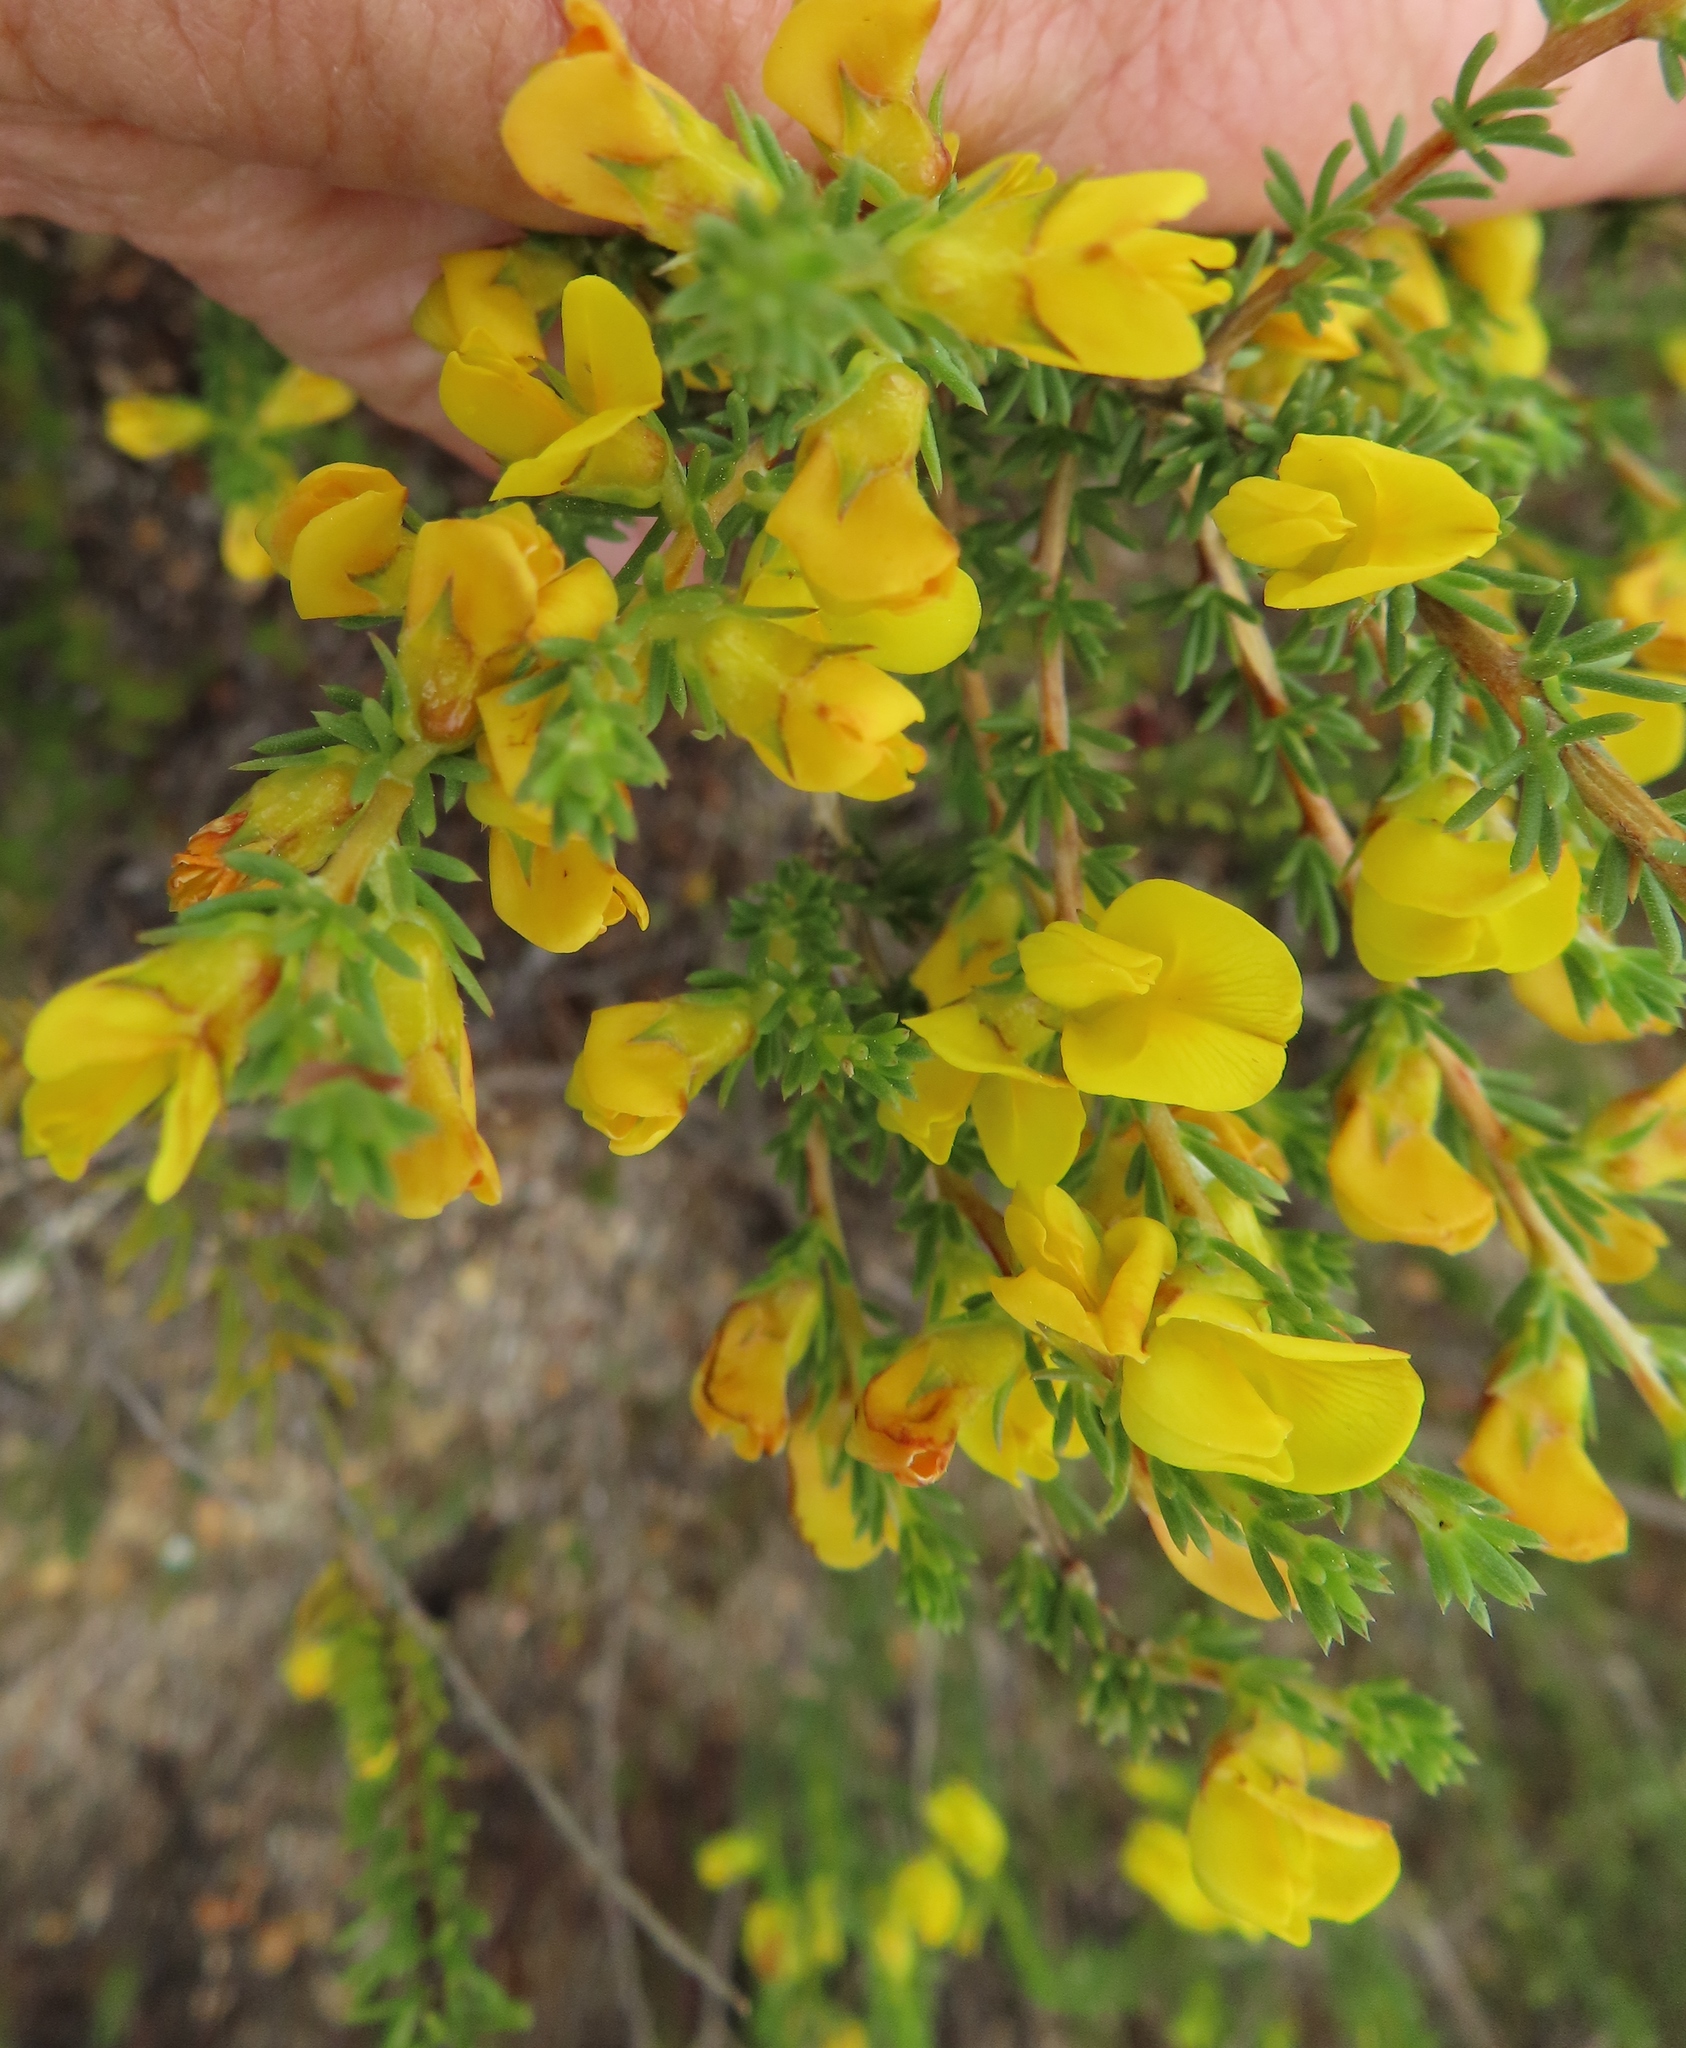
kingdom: Plantae
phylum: Tracheophyta
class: Magnoliopsida
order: Fabales
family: Fabaceae
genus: Aspalathus
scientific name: Aspalathus arida
